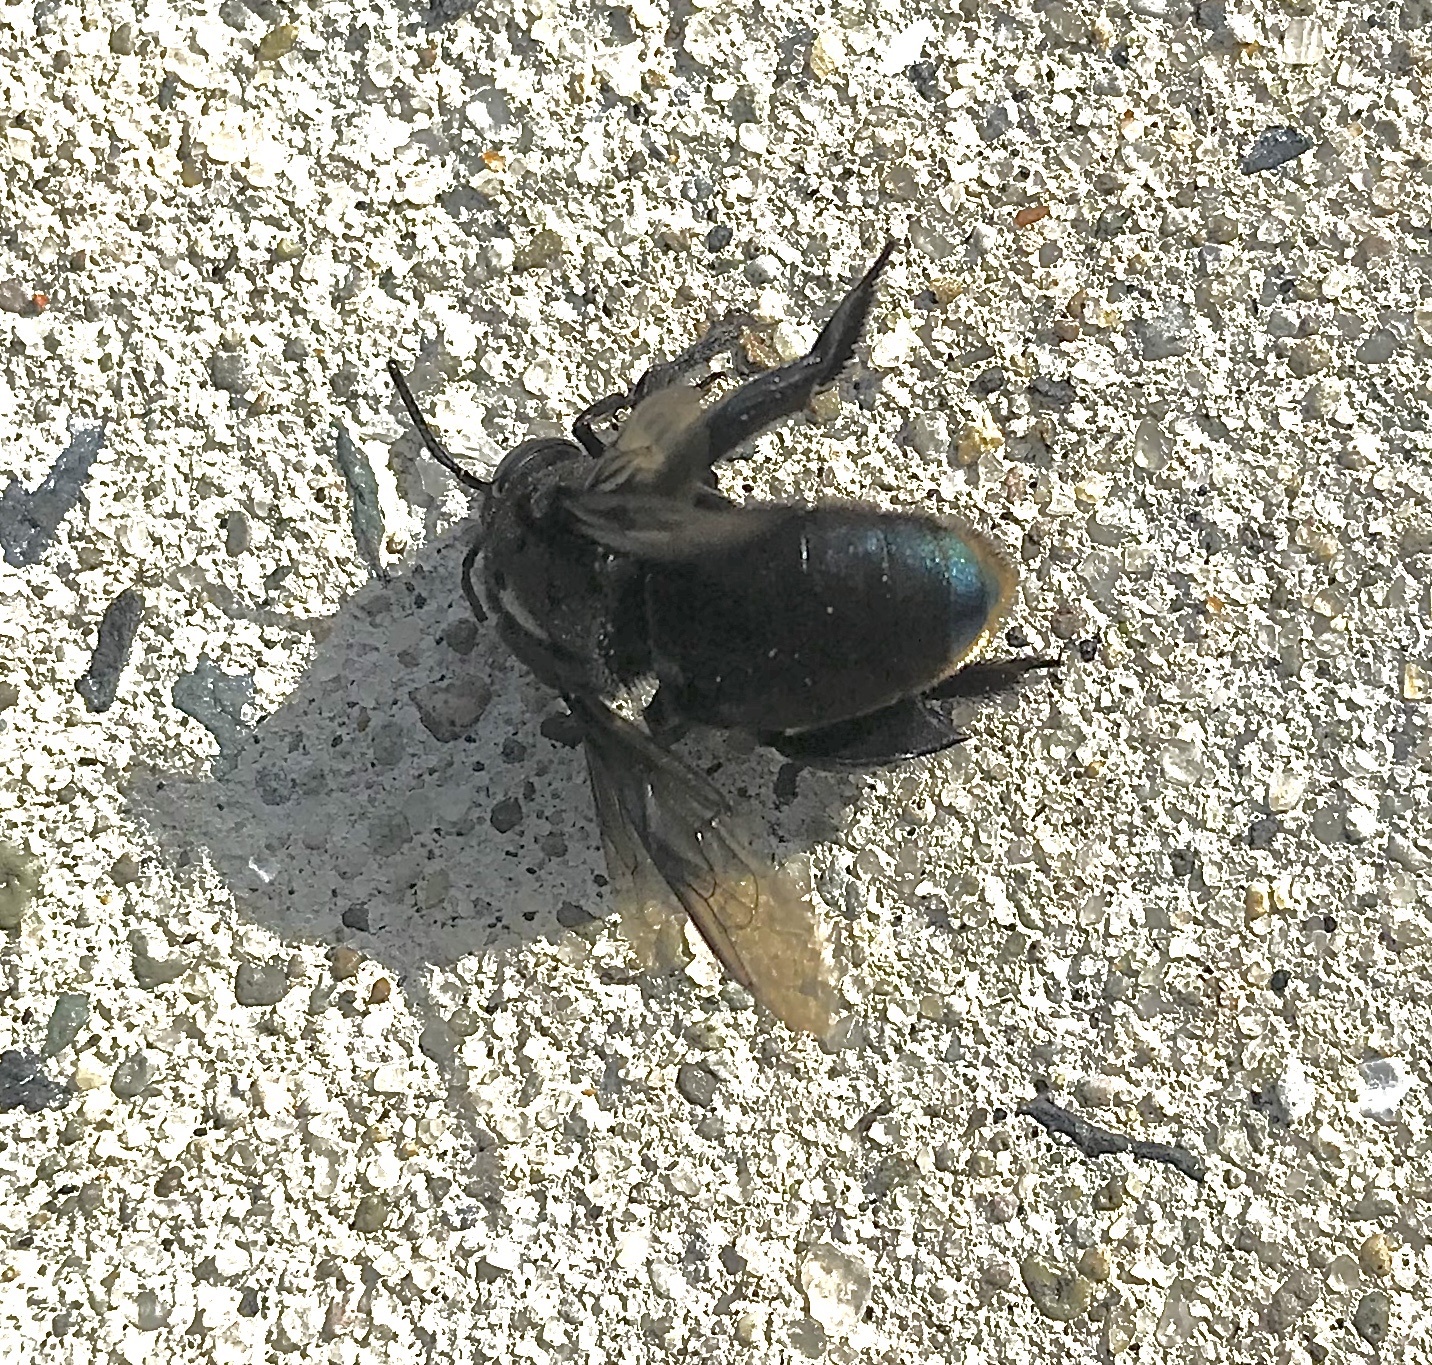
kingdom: Animalia
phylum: Arthropoda
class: Insecta
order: Hymenoptera
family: Apidae
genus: Eulaema
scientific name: Eulaema nigrita
